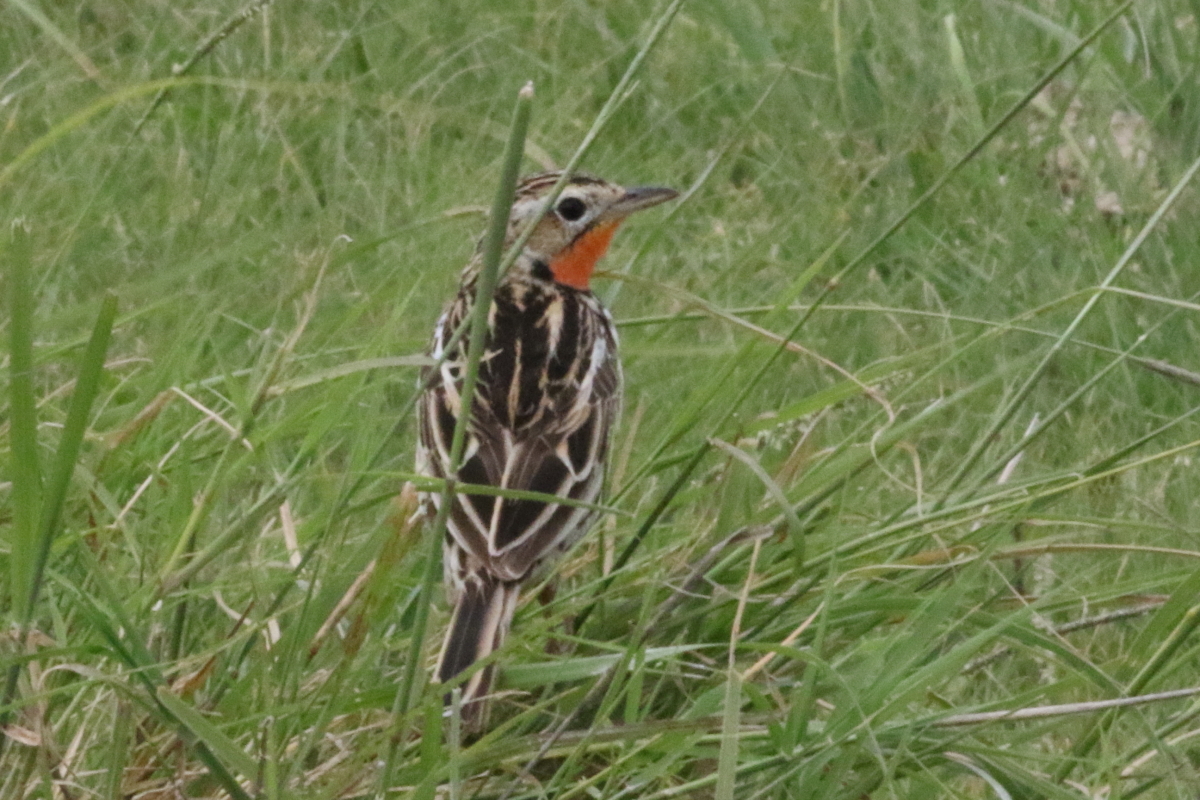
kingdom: Animalia
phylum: Chordata
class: Aves
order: Passeriformes
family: Motacillidae
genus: Macronyx
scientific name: Macronyx ameliae
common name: Rosy-throated longclaw
